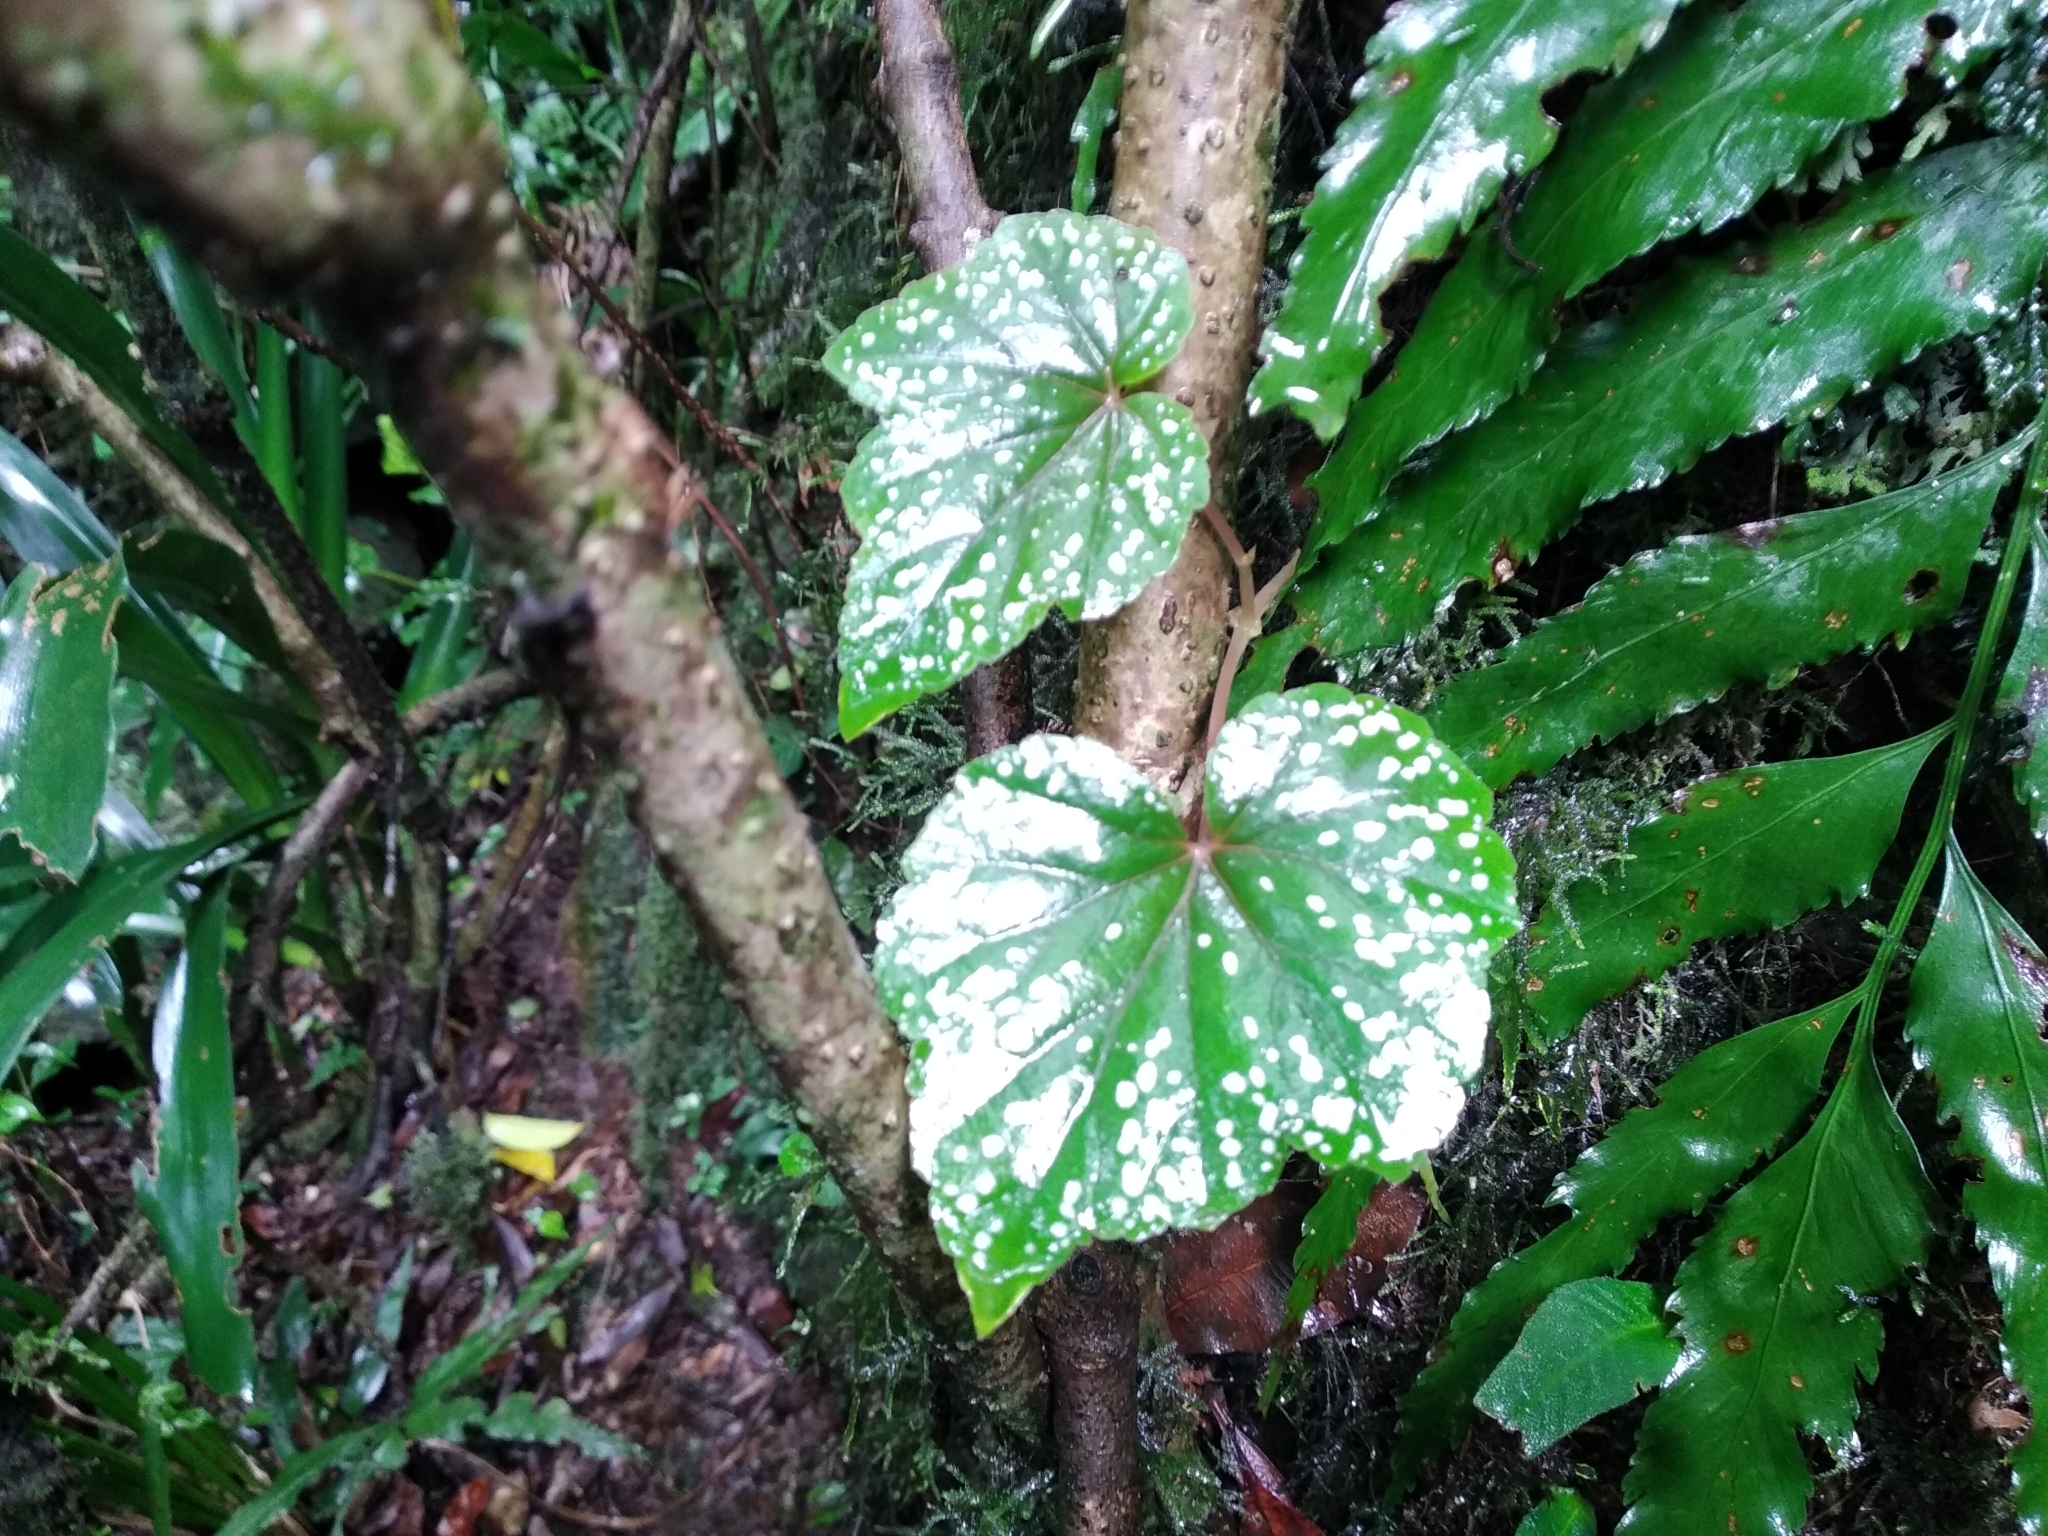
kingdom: Plantae
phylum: Tracheophyta
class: Magnoliopsida
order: Cucurbitales
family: Begoniaceae
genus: Begonia
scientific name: Begonia sonderiana
